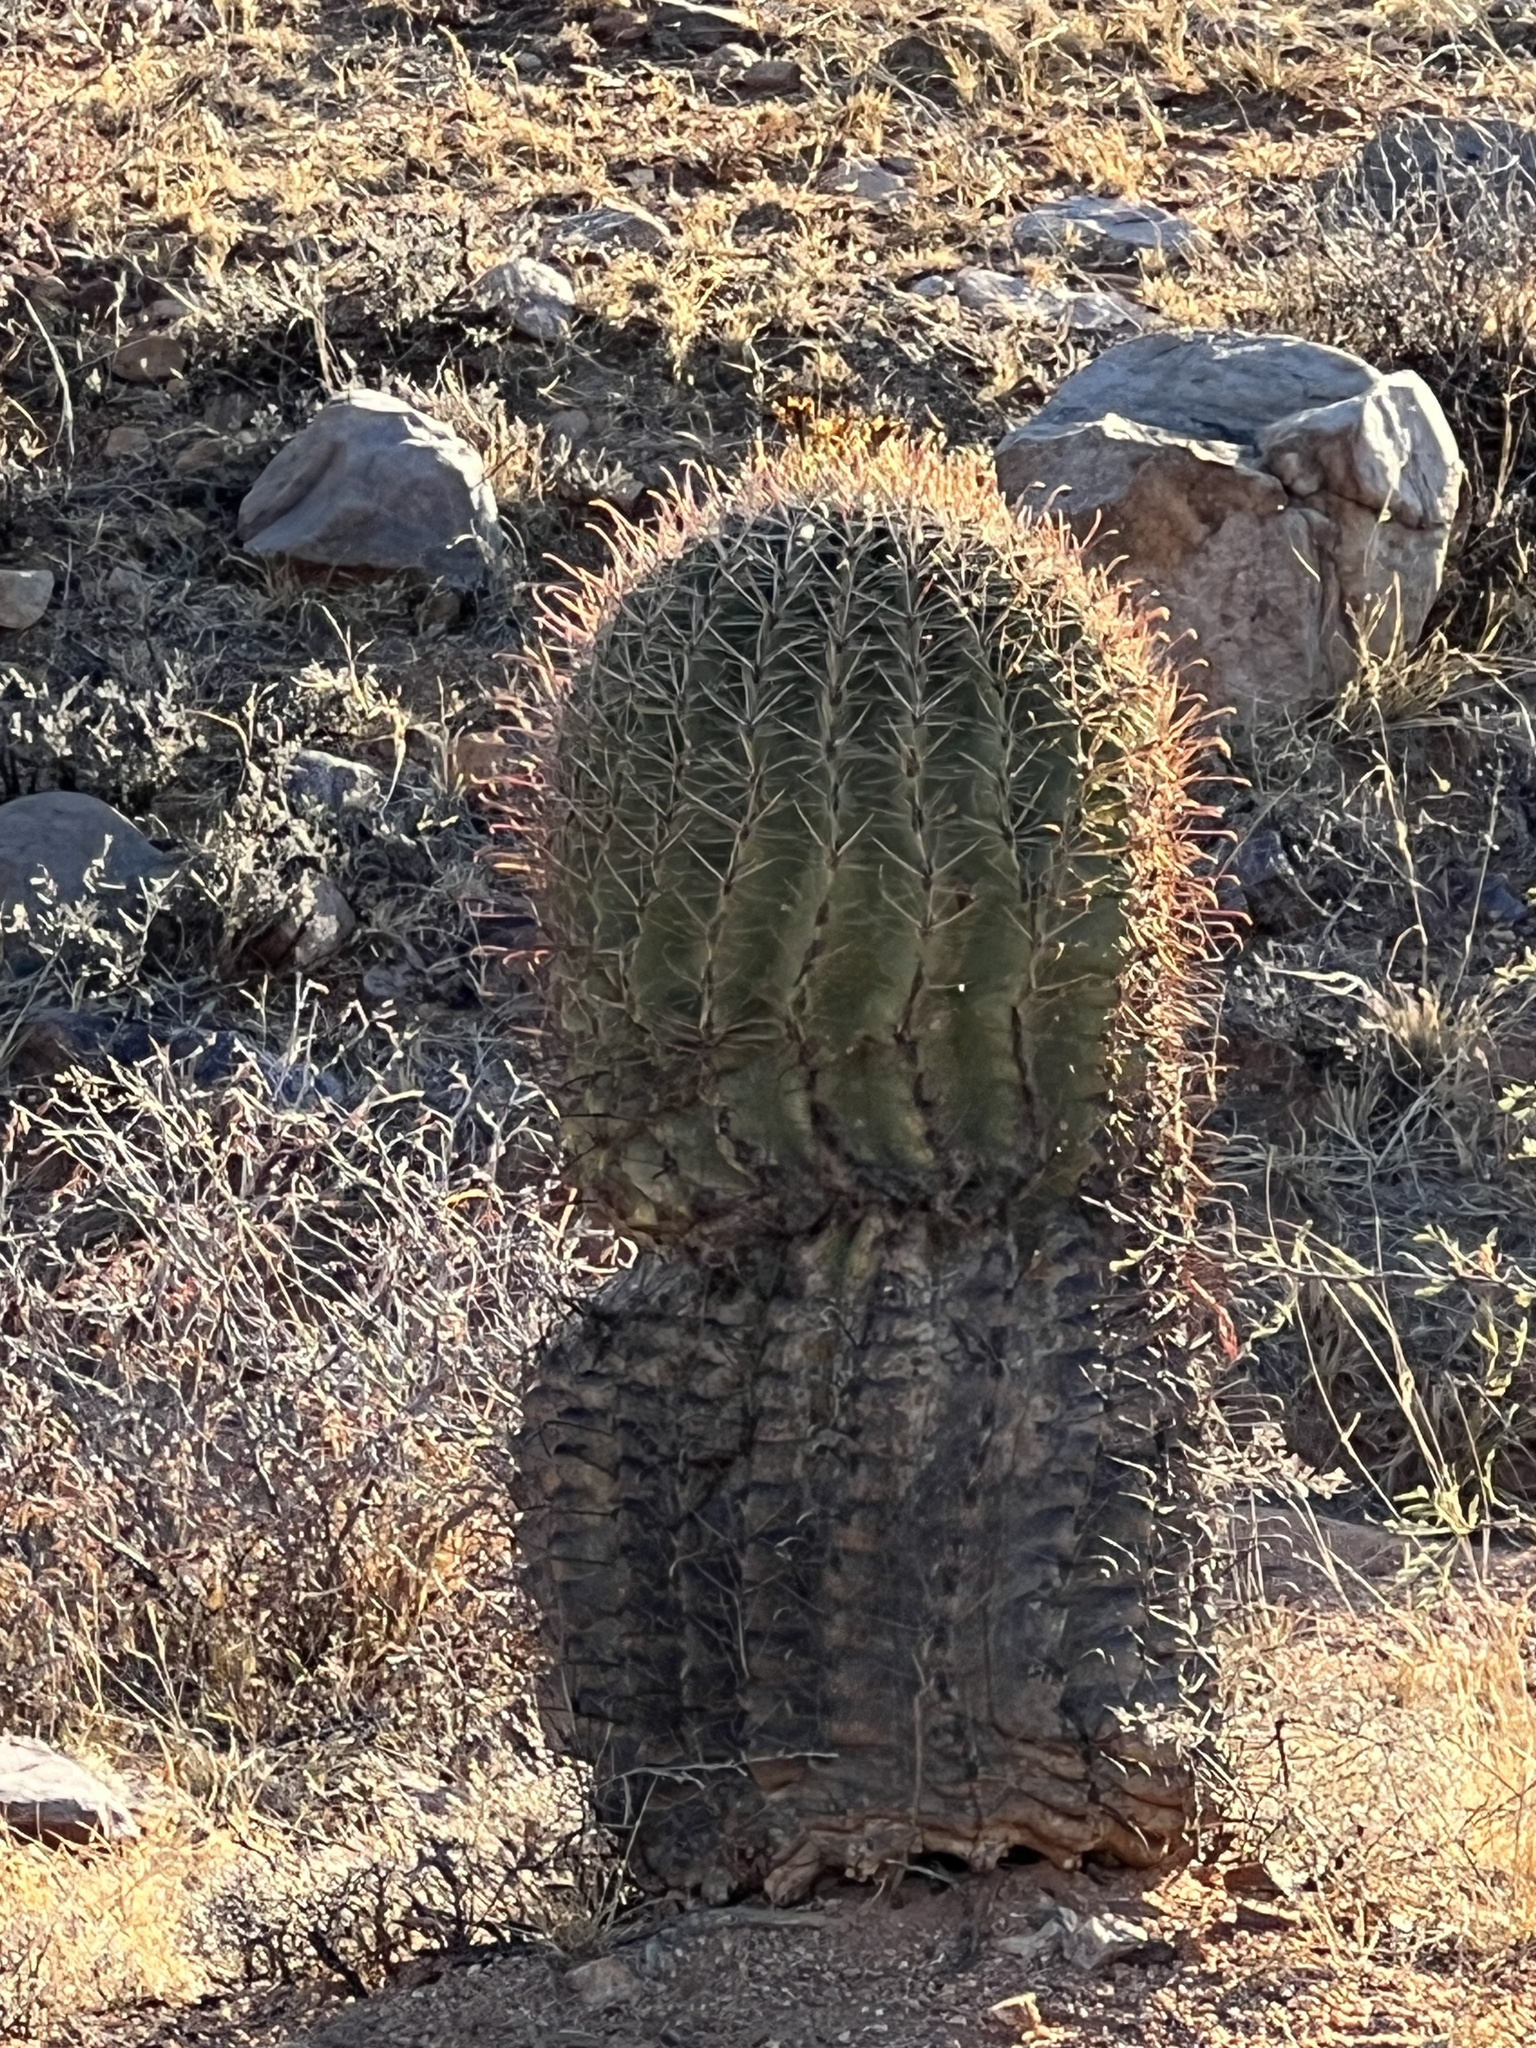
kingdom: Plantae
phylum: Tracheophyta
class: Magnoliopsida
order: Caryophyllales
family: Cactaceae
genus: Ferocactus
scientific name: Ferocactus wislizeni
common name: Candy barrel cactus
